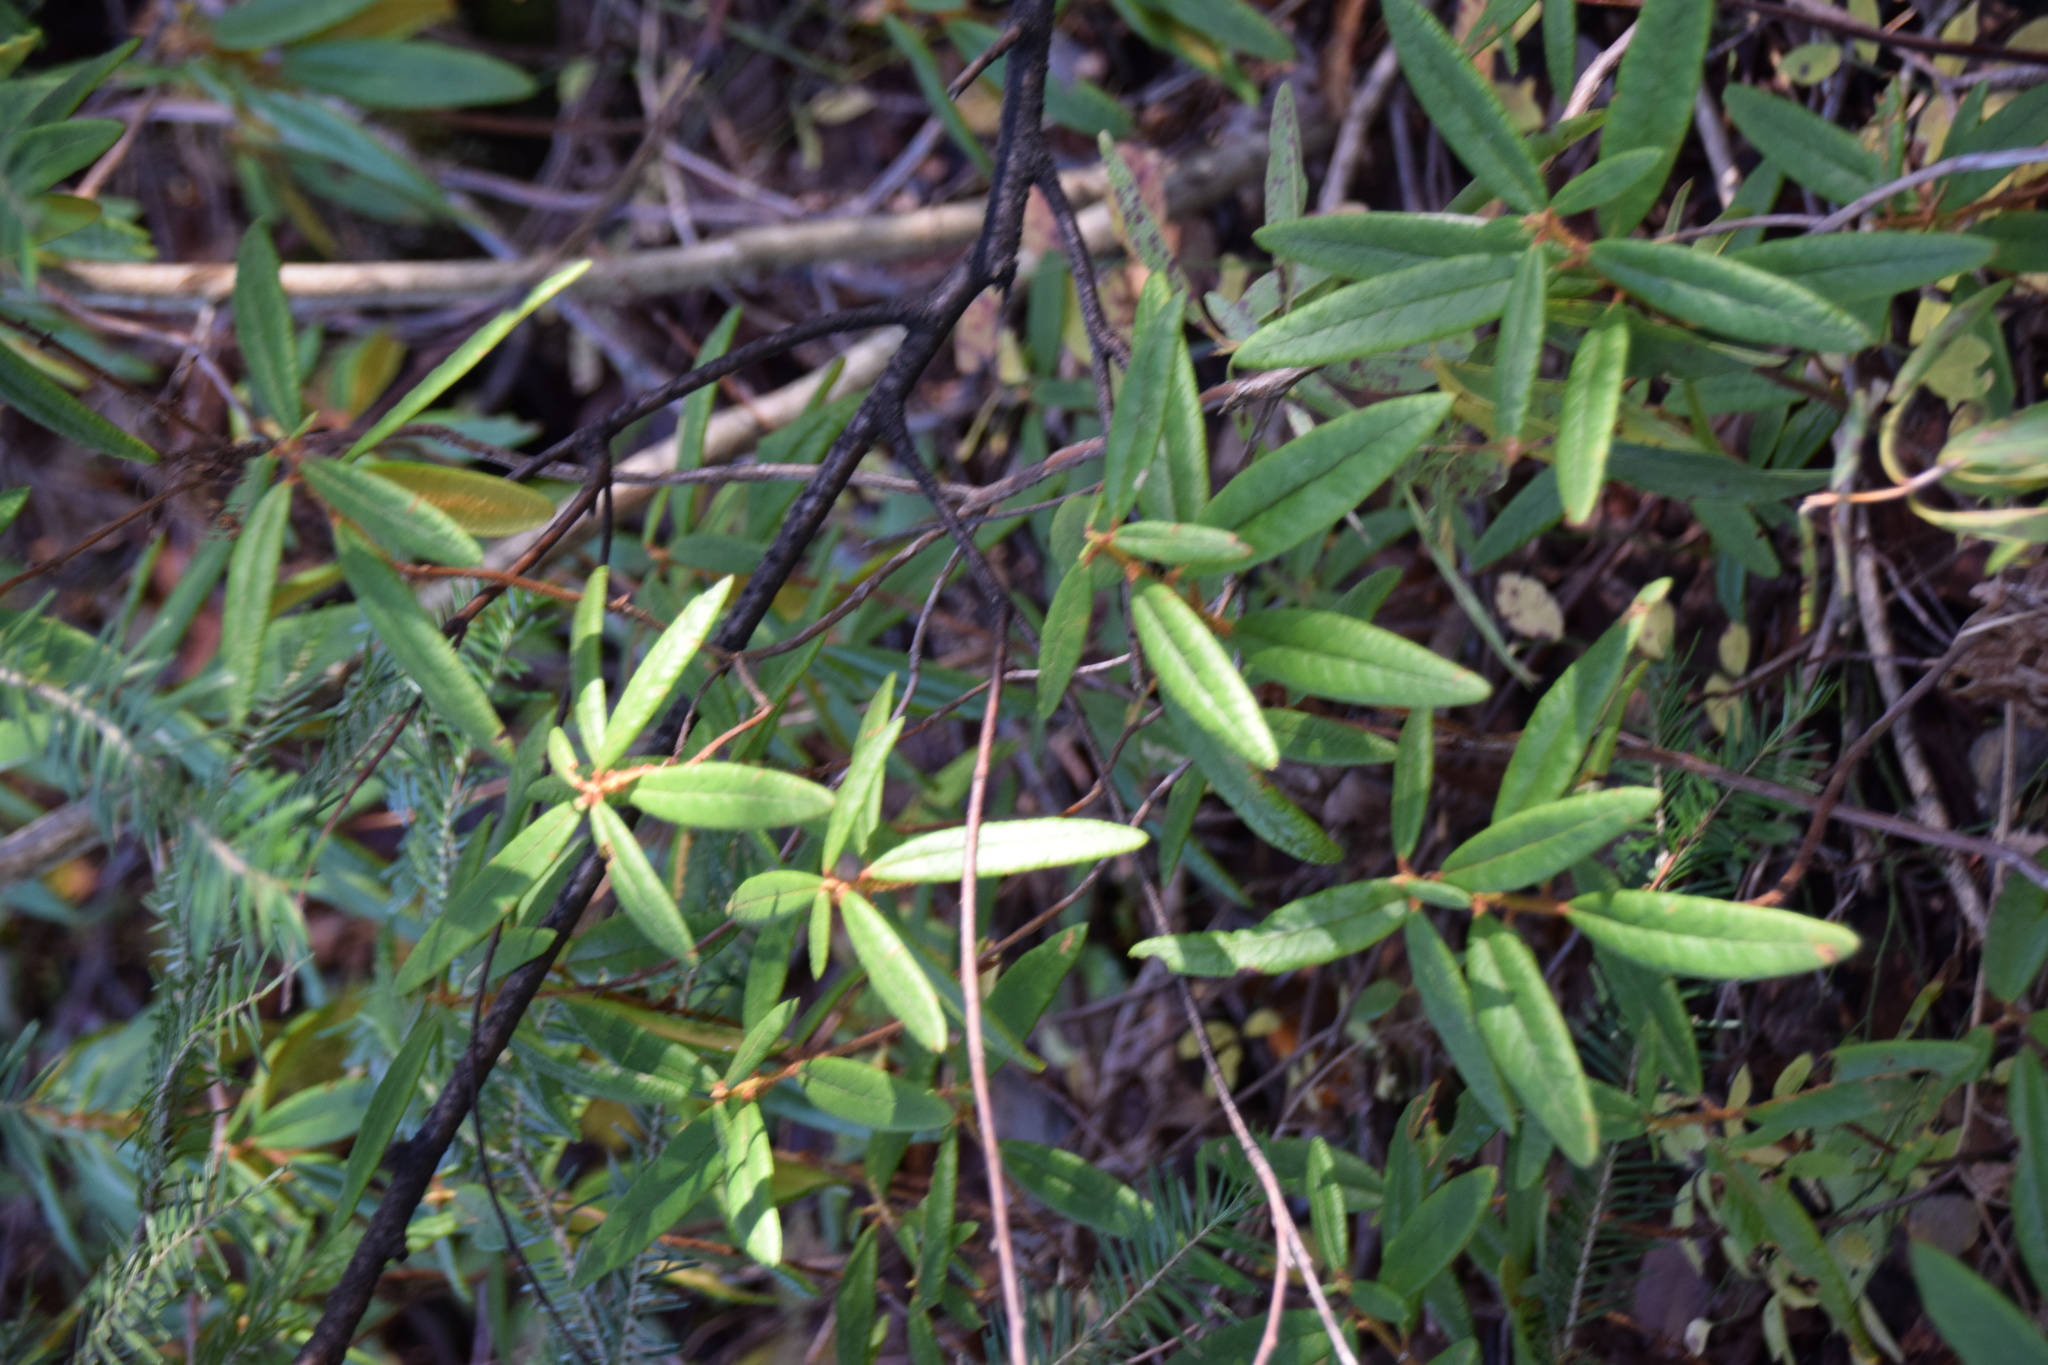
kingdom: Plantae
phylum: Tracheophyta
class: Magnoliopsida
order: Ericales
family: Ericaceae
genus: Rhododendron
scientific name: Rhododendron groenlandicum
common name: Bog labrador tea
